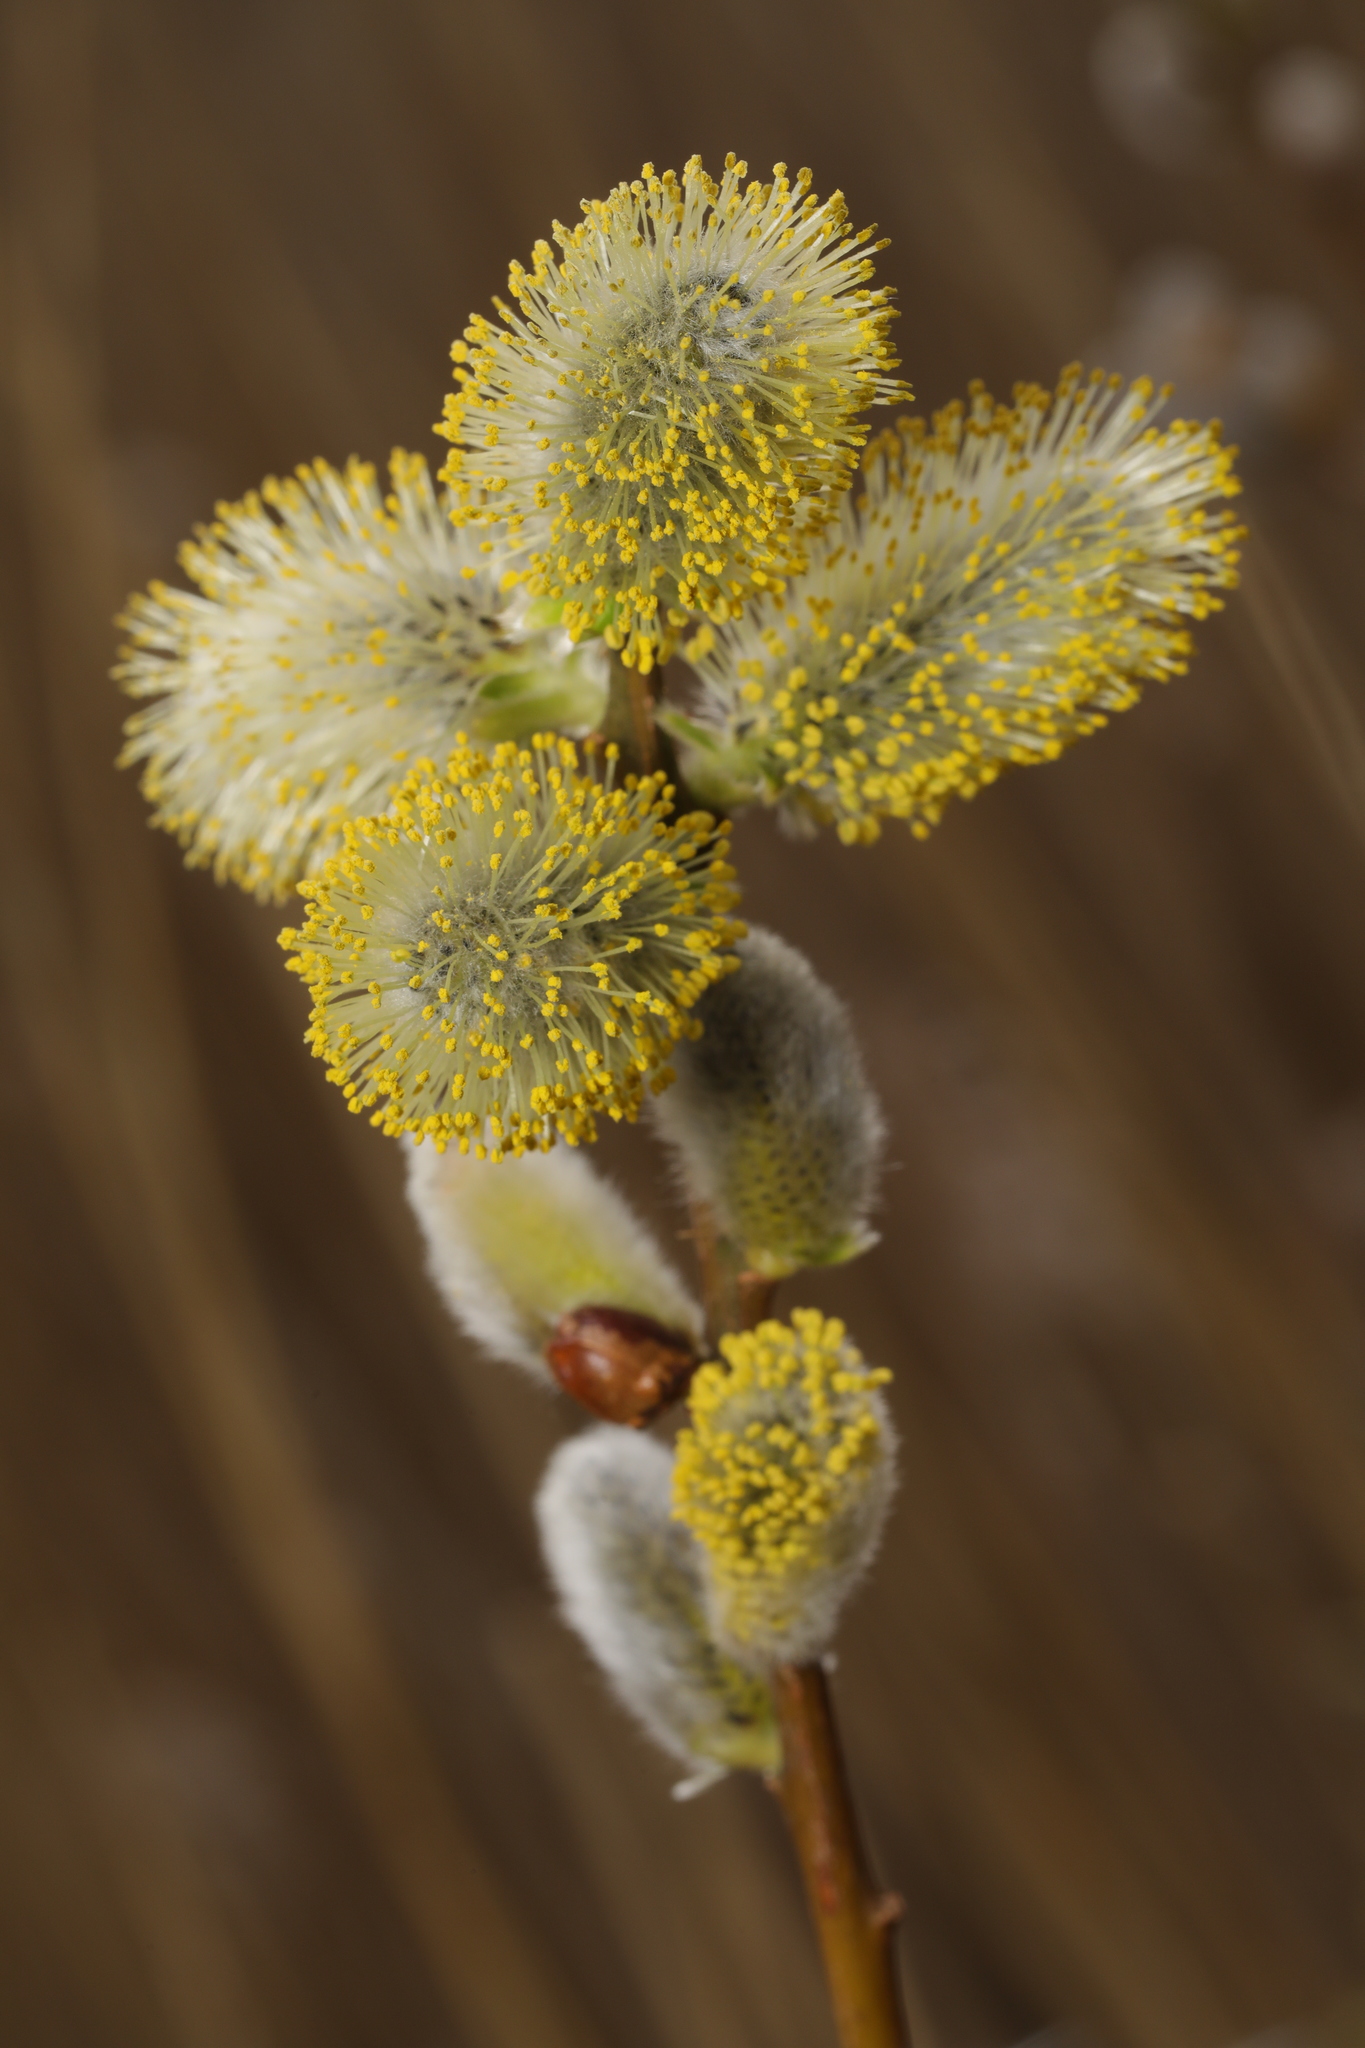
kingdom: Plantae
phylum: Tracheophyta
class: Magnoliopsida
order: Malpighiales
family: Salicaceae
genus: Salix
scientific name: Salix caprea
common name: Goat willow
